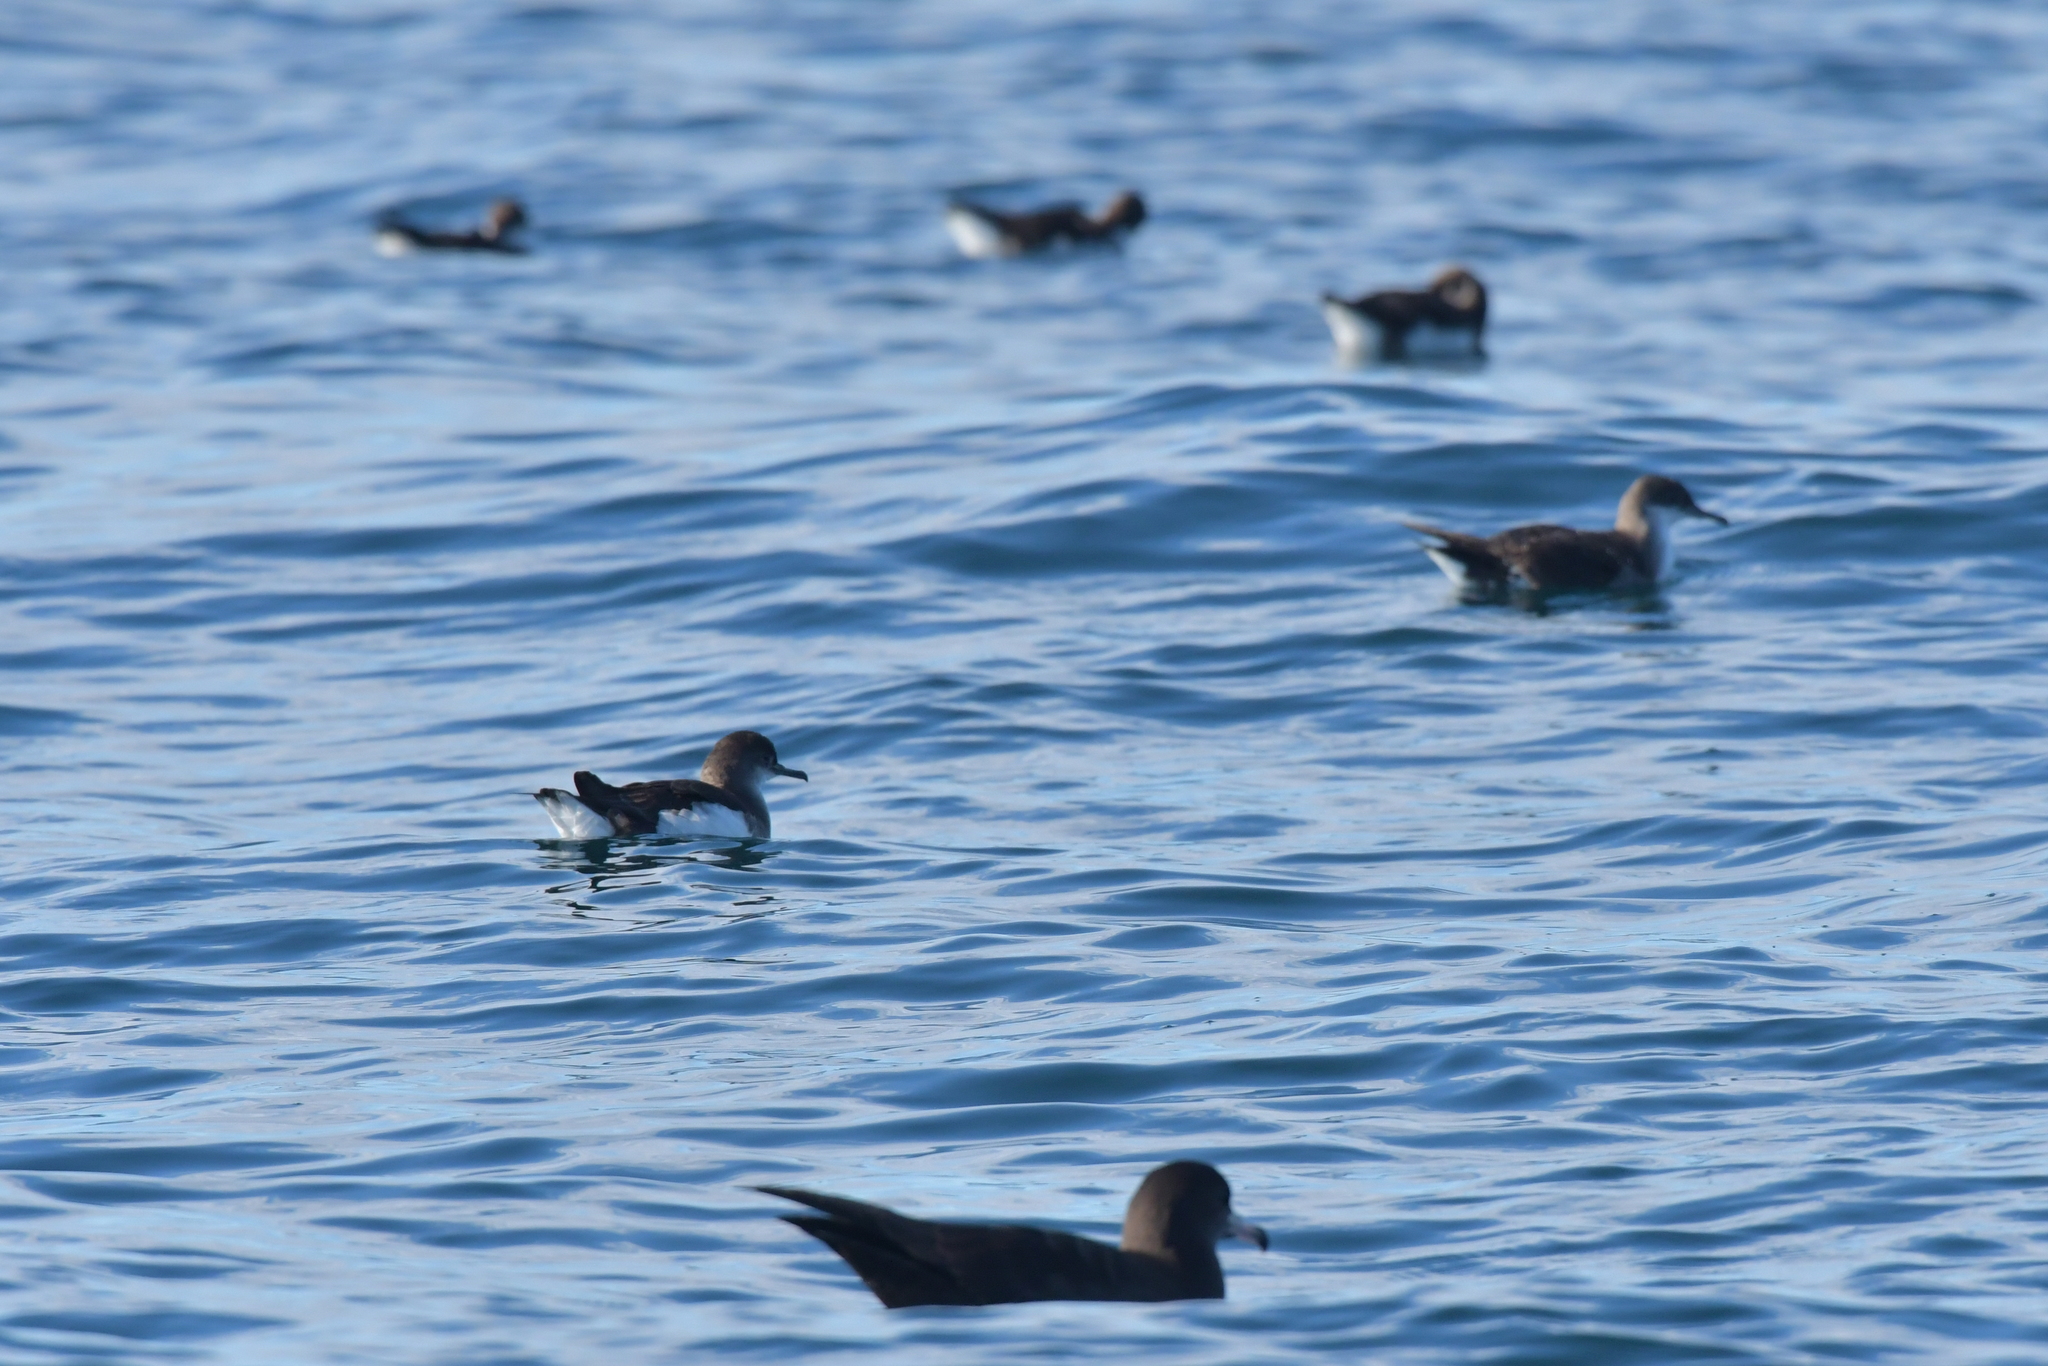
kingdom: Animalia
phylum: Chordata
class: Aves
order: Procellariiformes
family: Procellariidae
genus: Puffinus
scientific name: Puffinus gavia
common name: Fluttering shearwater
